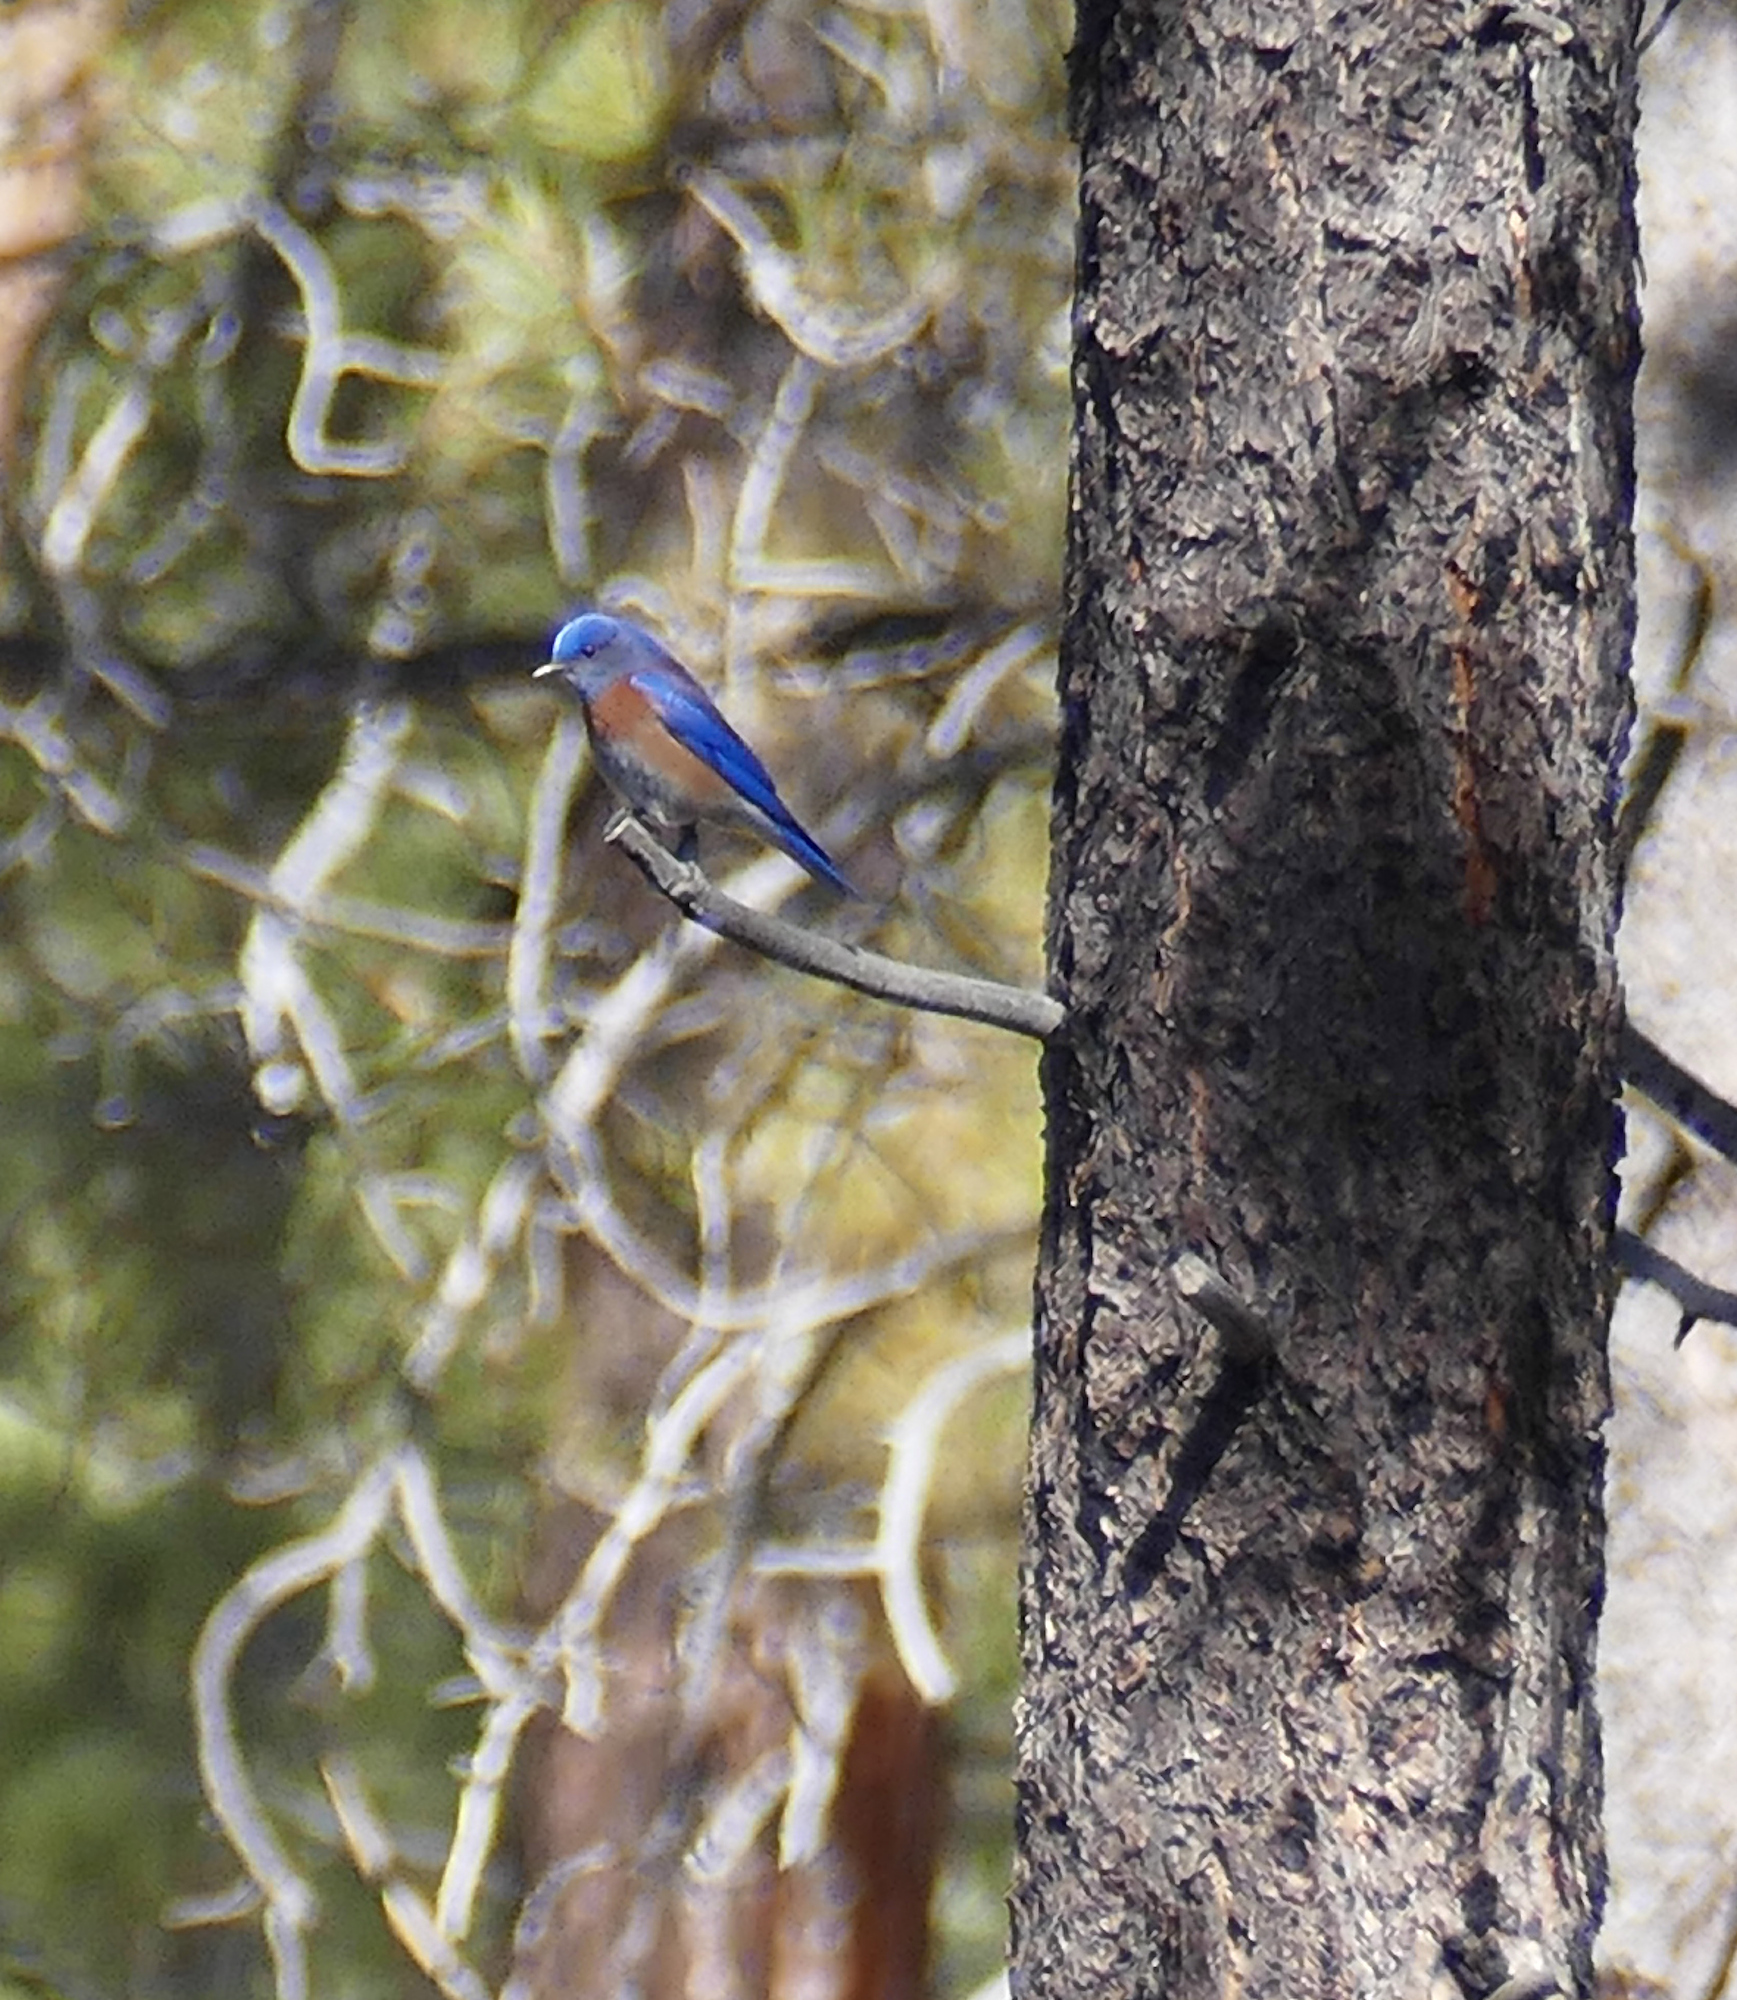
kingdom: Animalia
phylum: Chordata
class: Aves
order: Passeriformes
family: Turdidae
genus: Sialia
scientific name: Sialia mexicana
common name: Western bluebird
